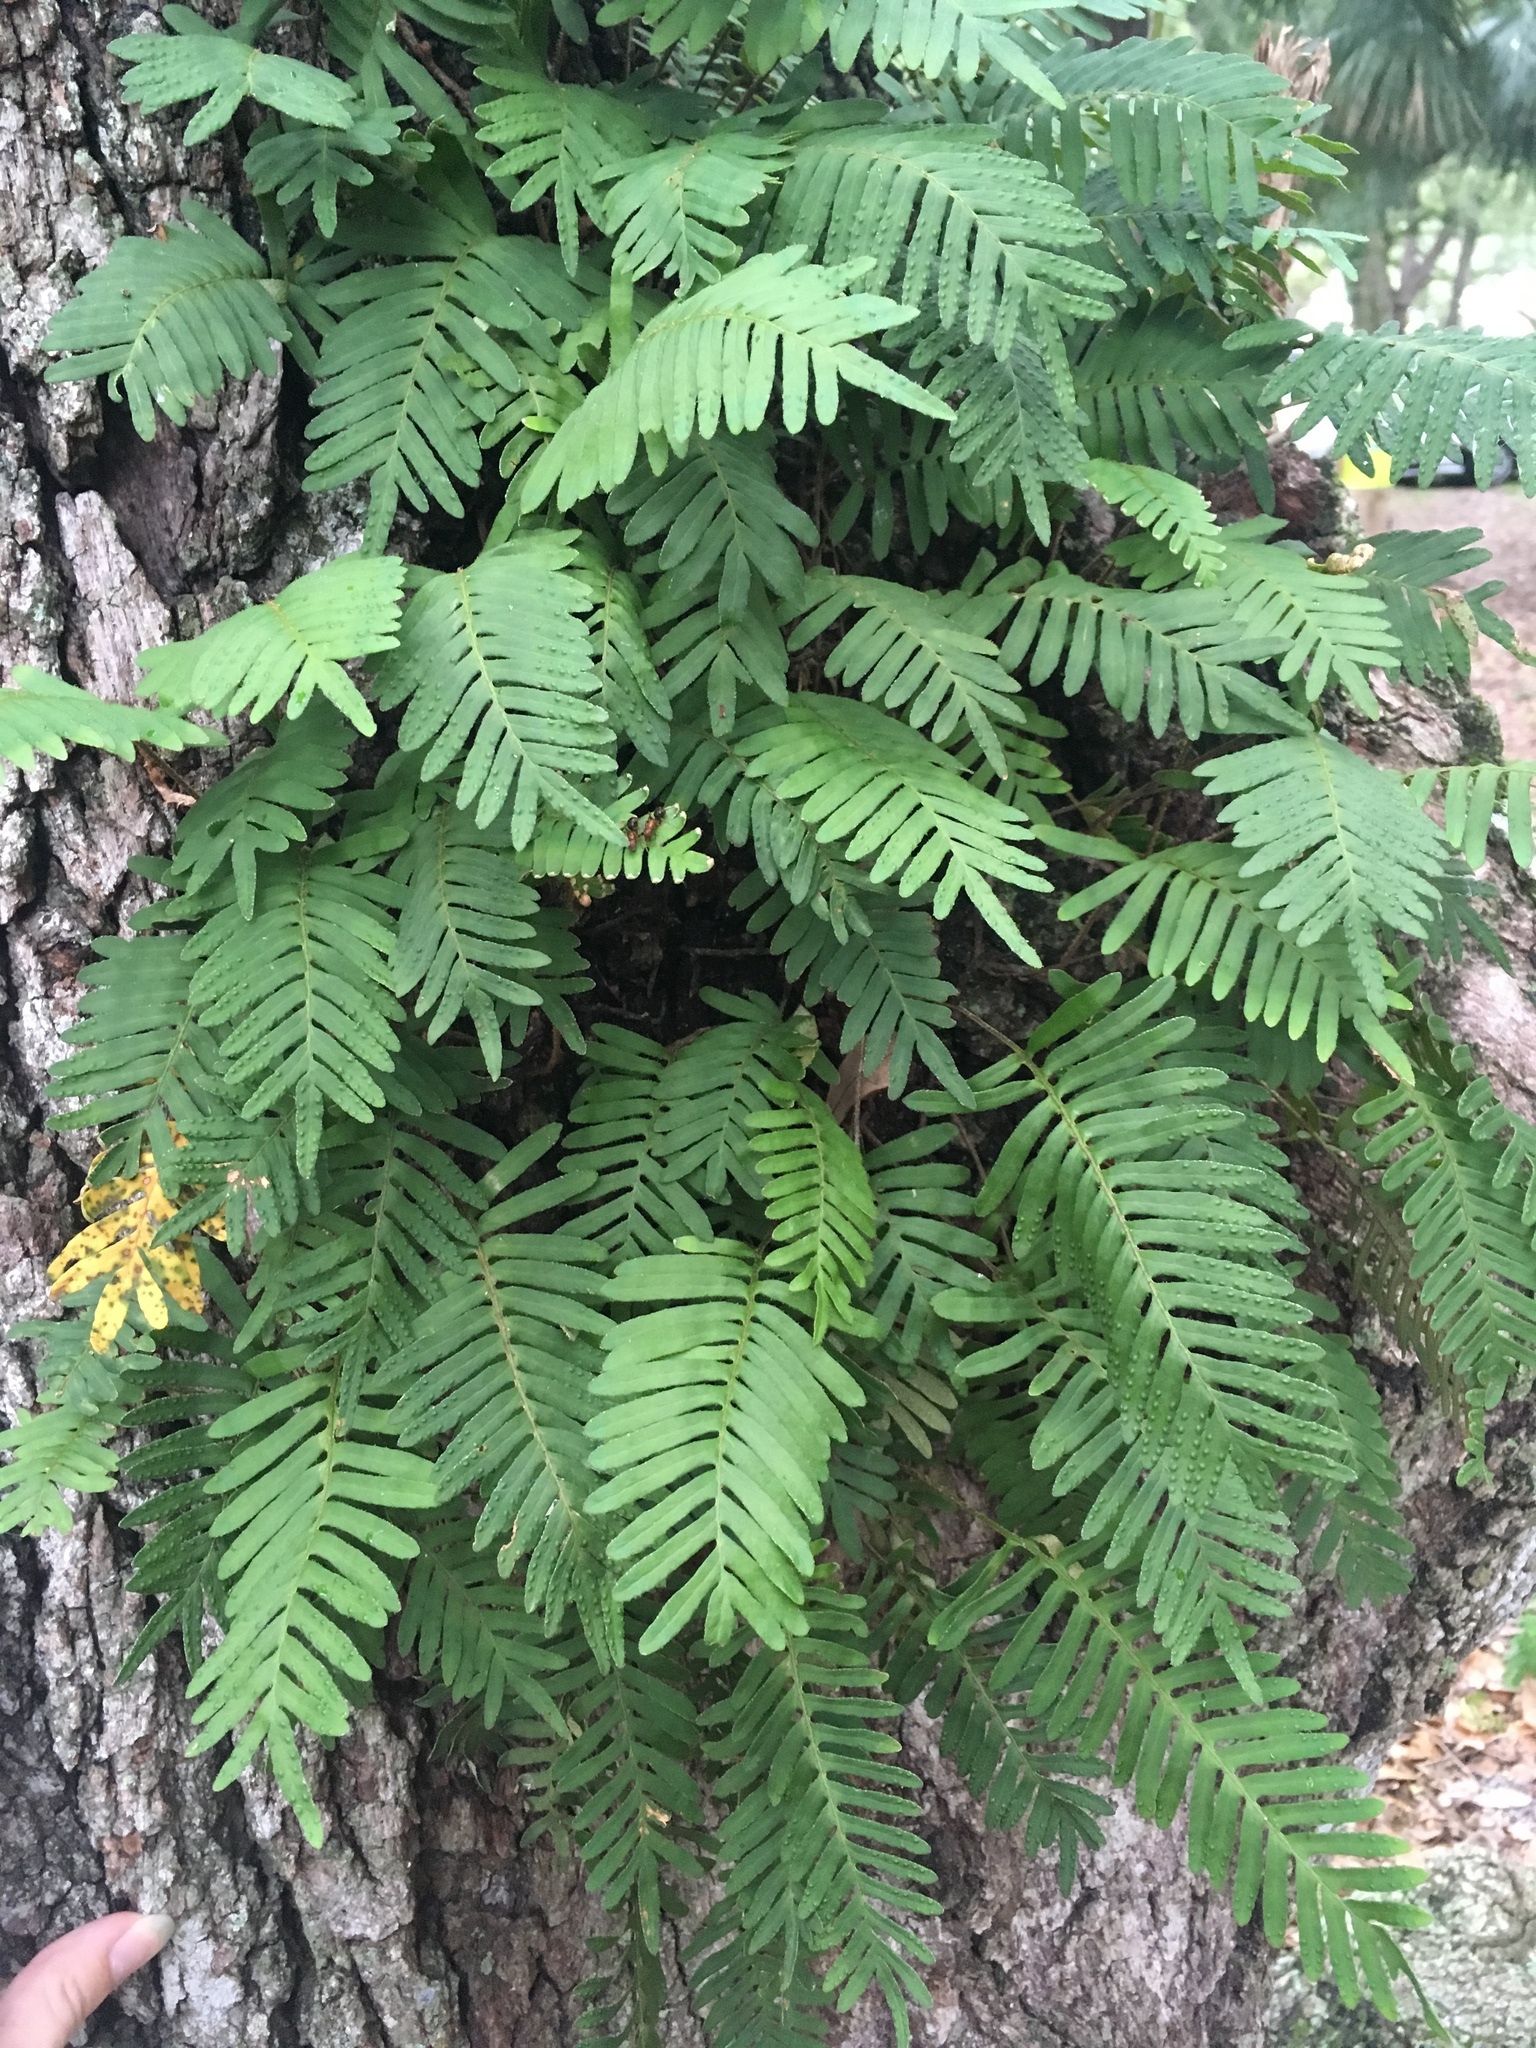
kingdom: Plantae
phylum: Tracheophyta
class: Polypodiopsida
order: Polypodiales
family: Polypodiaceae
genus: Pleopeltis
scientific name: Pleopeltis michauxiana
